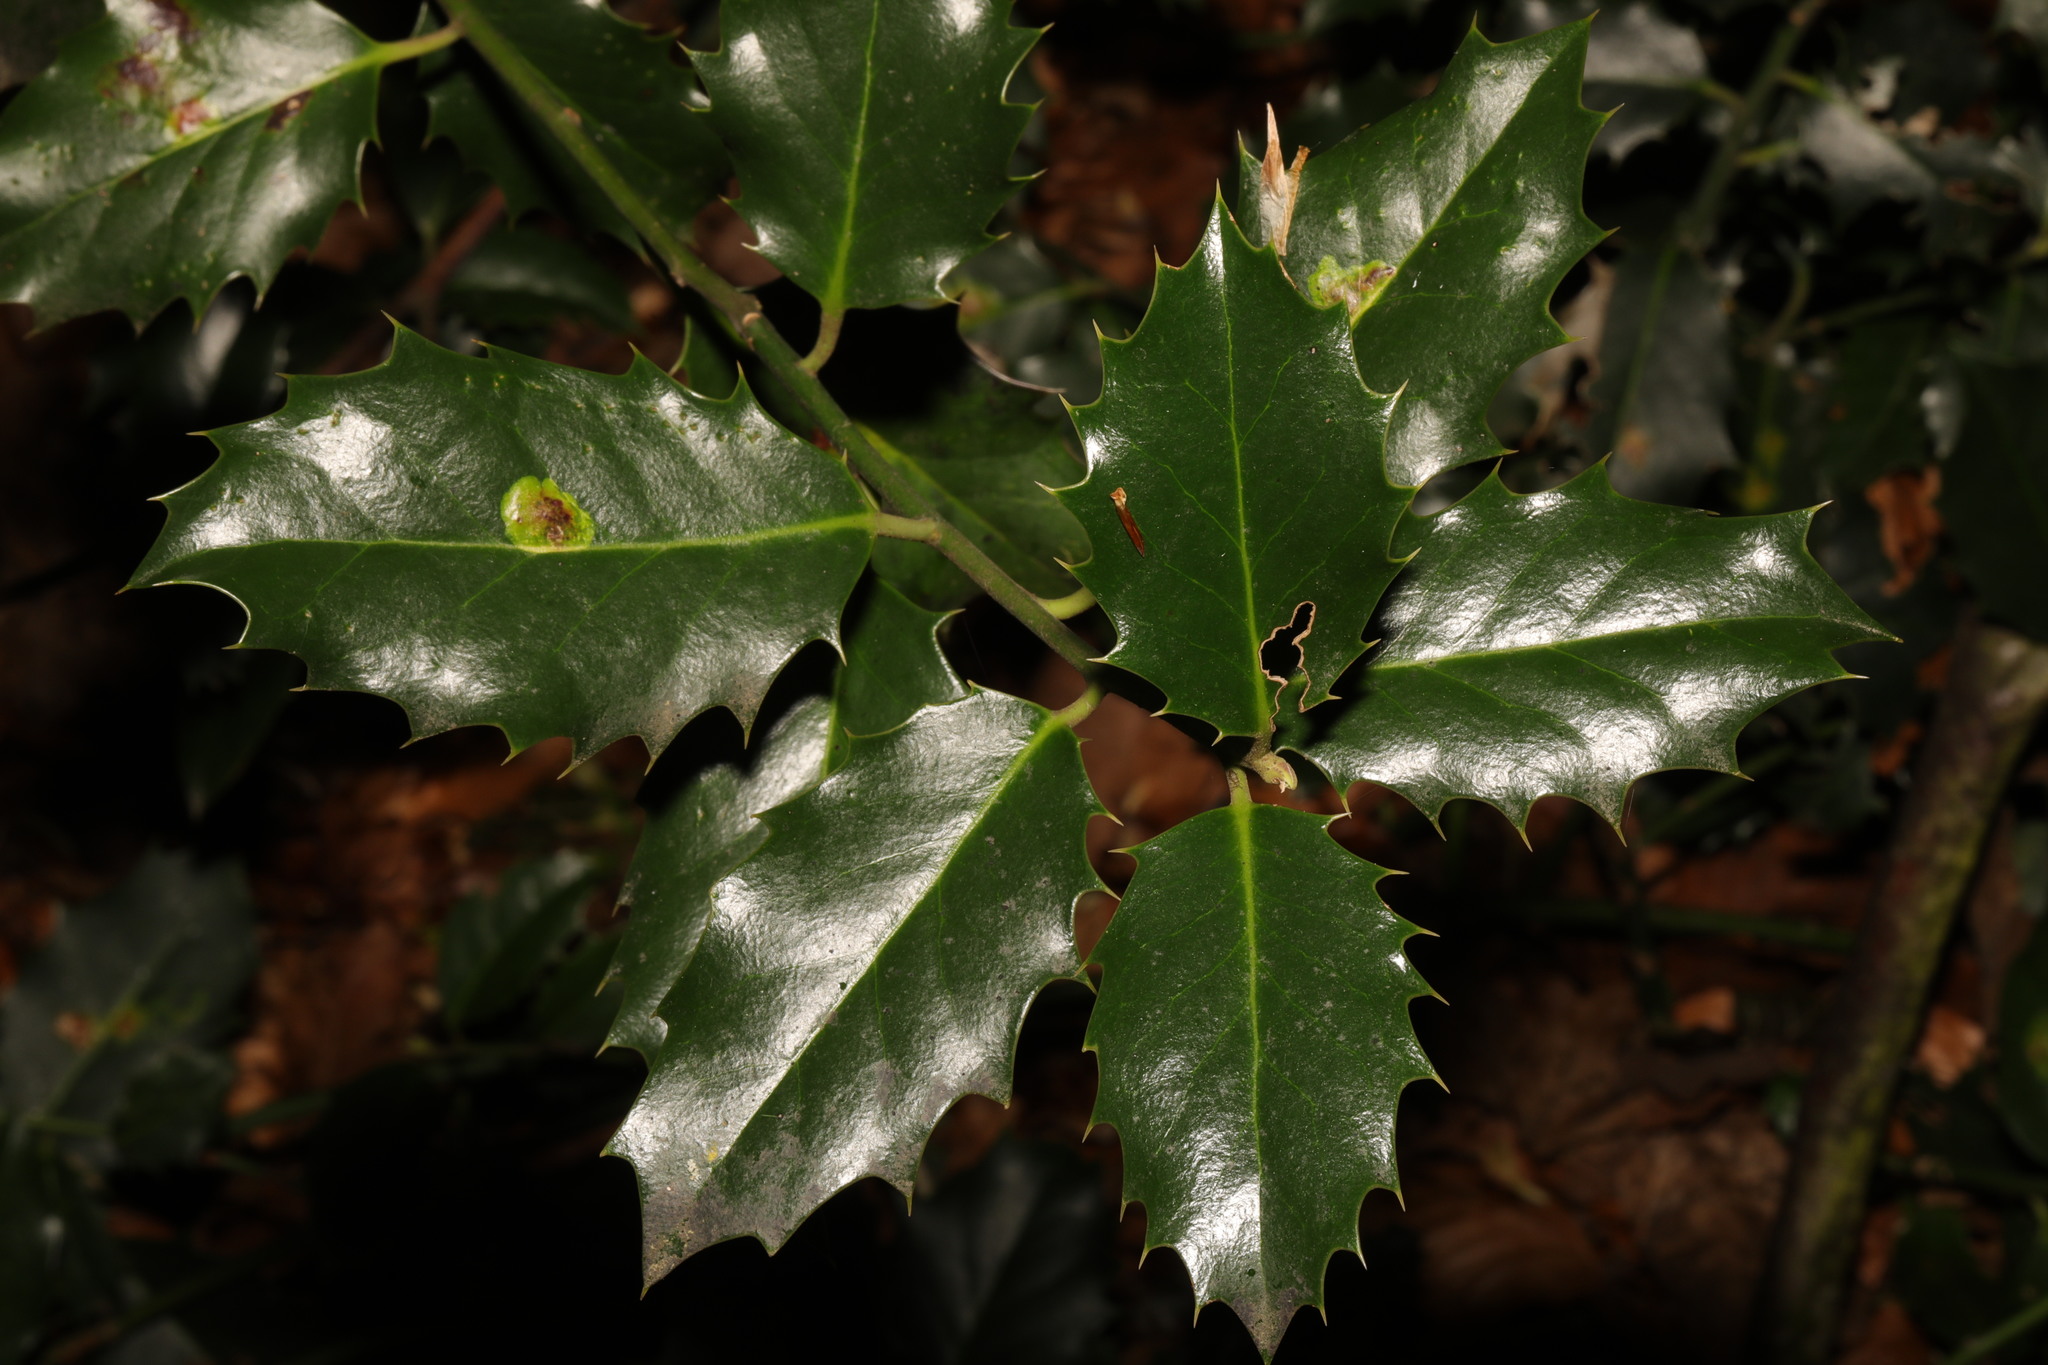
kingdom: Plantae
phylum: Tracheophyta
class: Magnoliopsida
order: Aquifoliales
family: Aquifoliaceae
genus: Ilex
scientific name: Ilex aquifolium
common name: English holly
